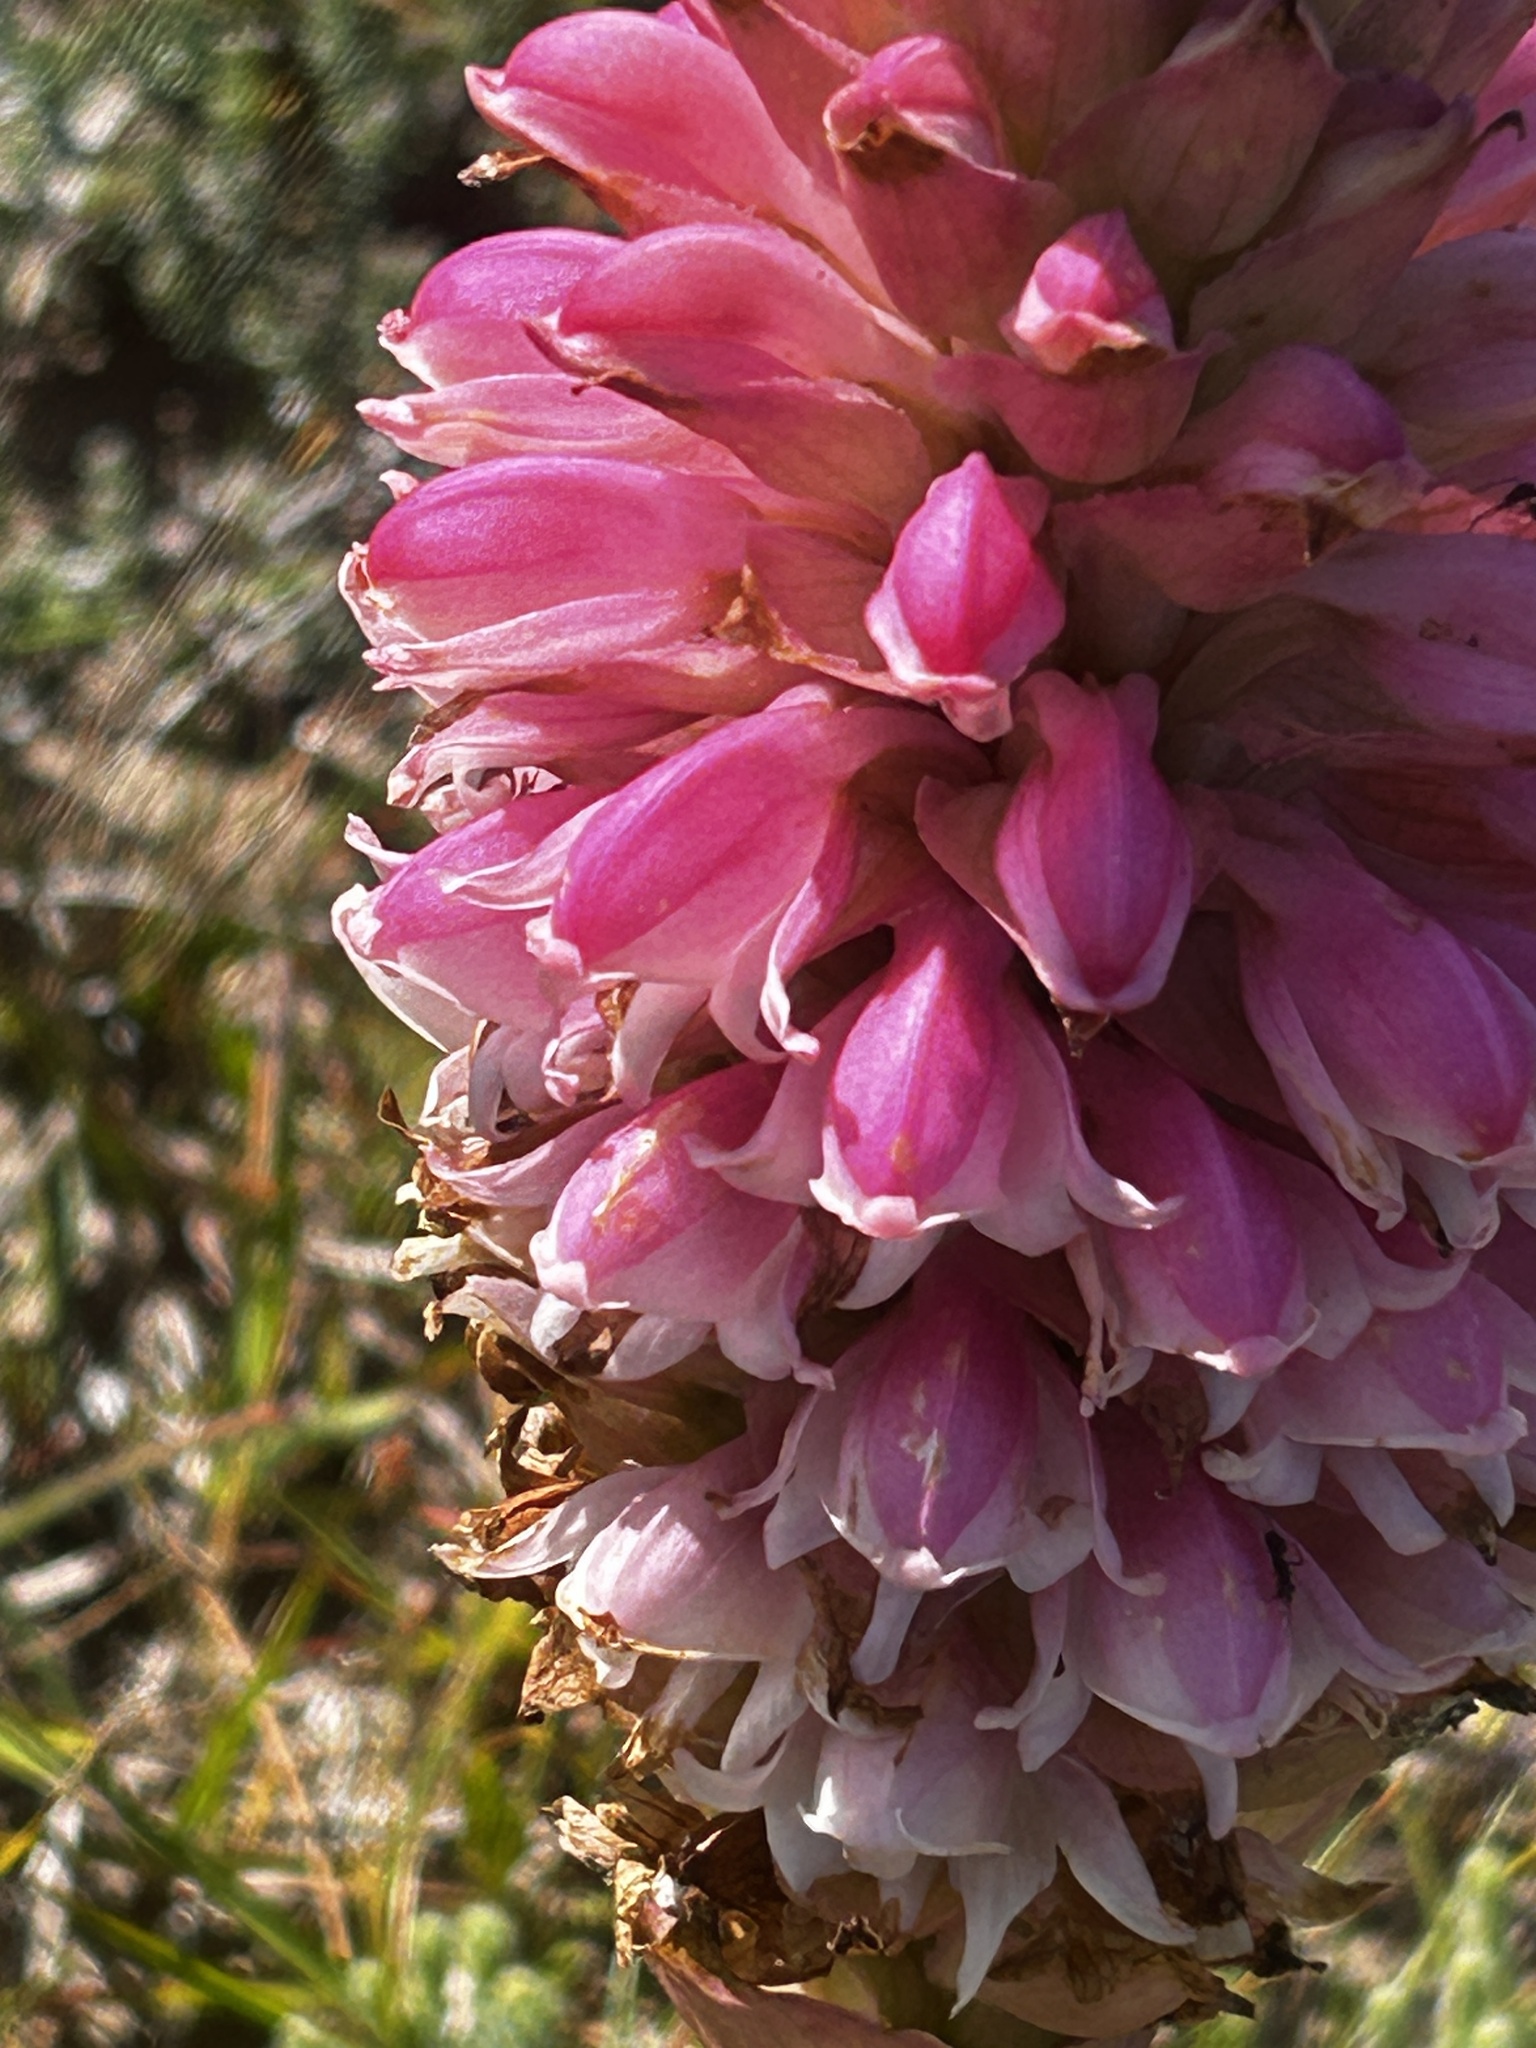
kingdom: Plantae
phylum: Tracheophyta
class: Liliopsida
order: Asparagales
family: Orchidaceae
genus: Satyrium
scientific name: Satyrium carneum
